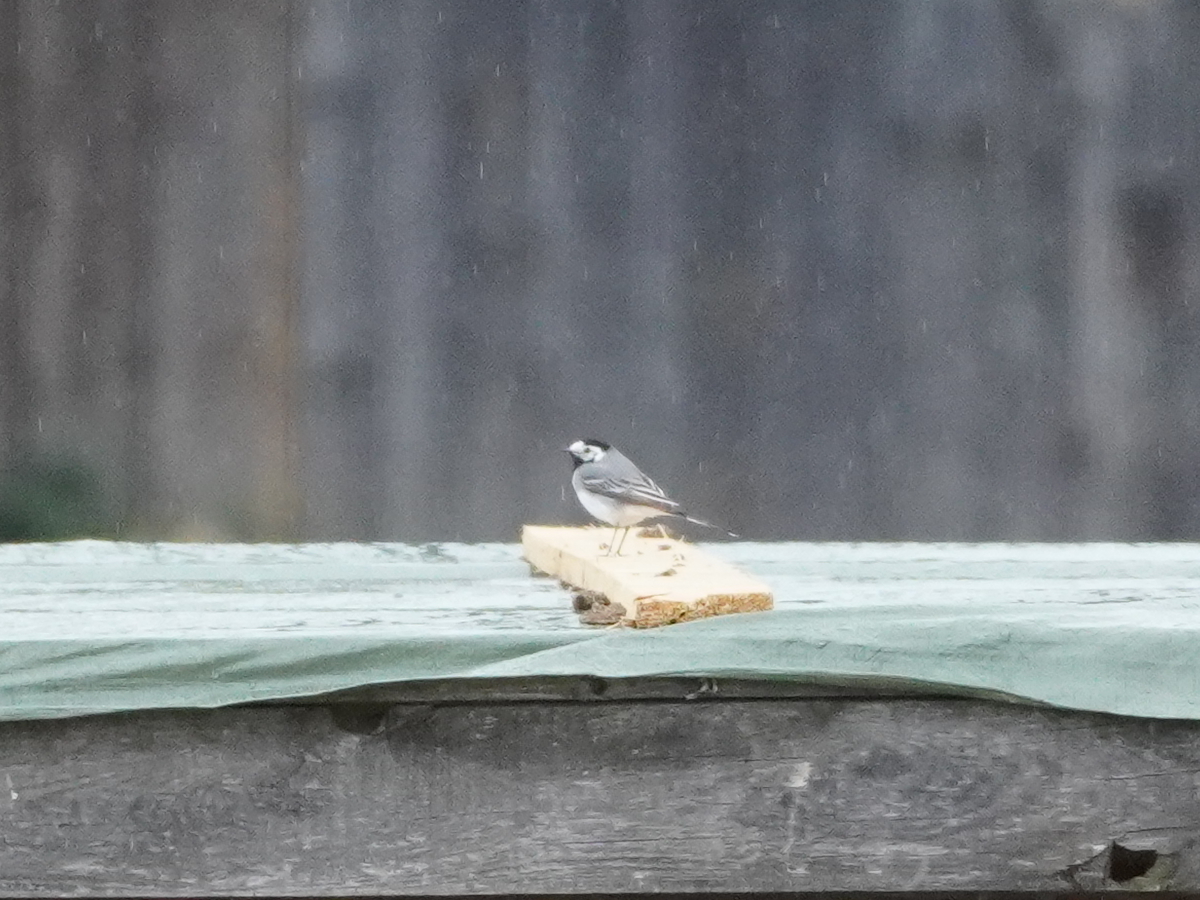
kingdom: Animalia
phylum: Chordata
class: Aves
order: Passeriformes
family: Motacillidae
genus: Motacilla
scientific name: Motacilla alba
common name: White wagtail
